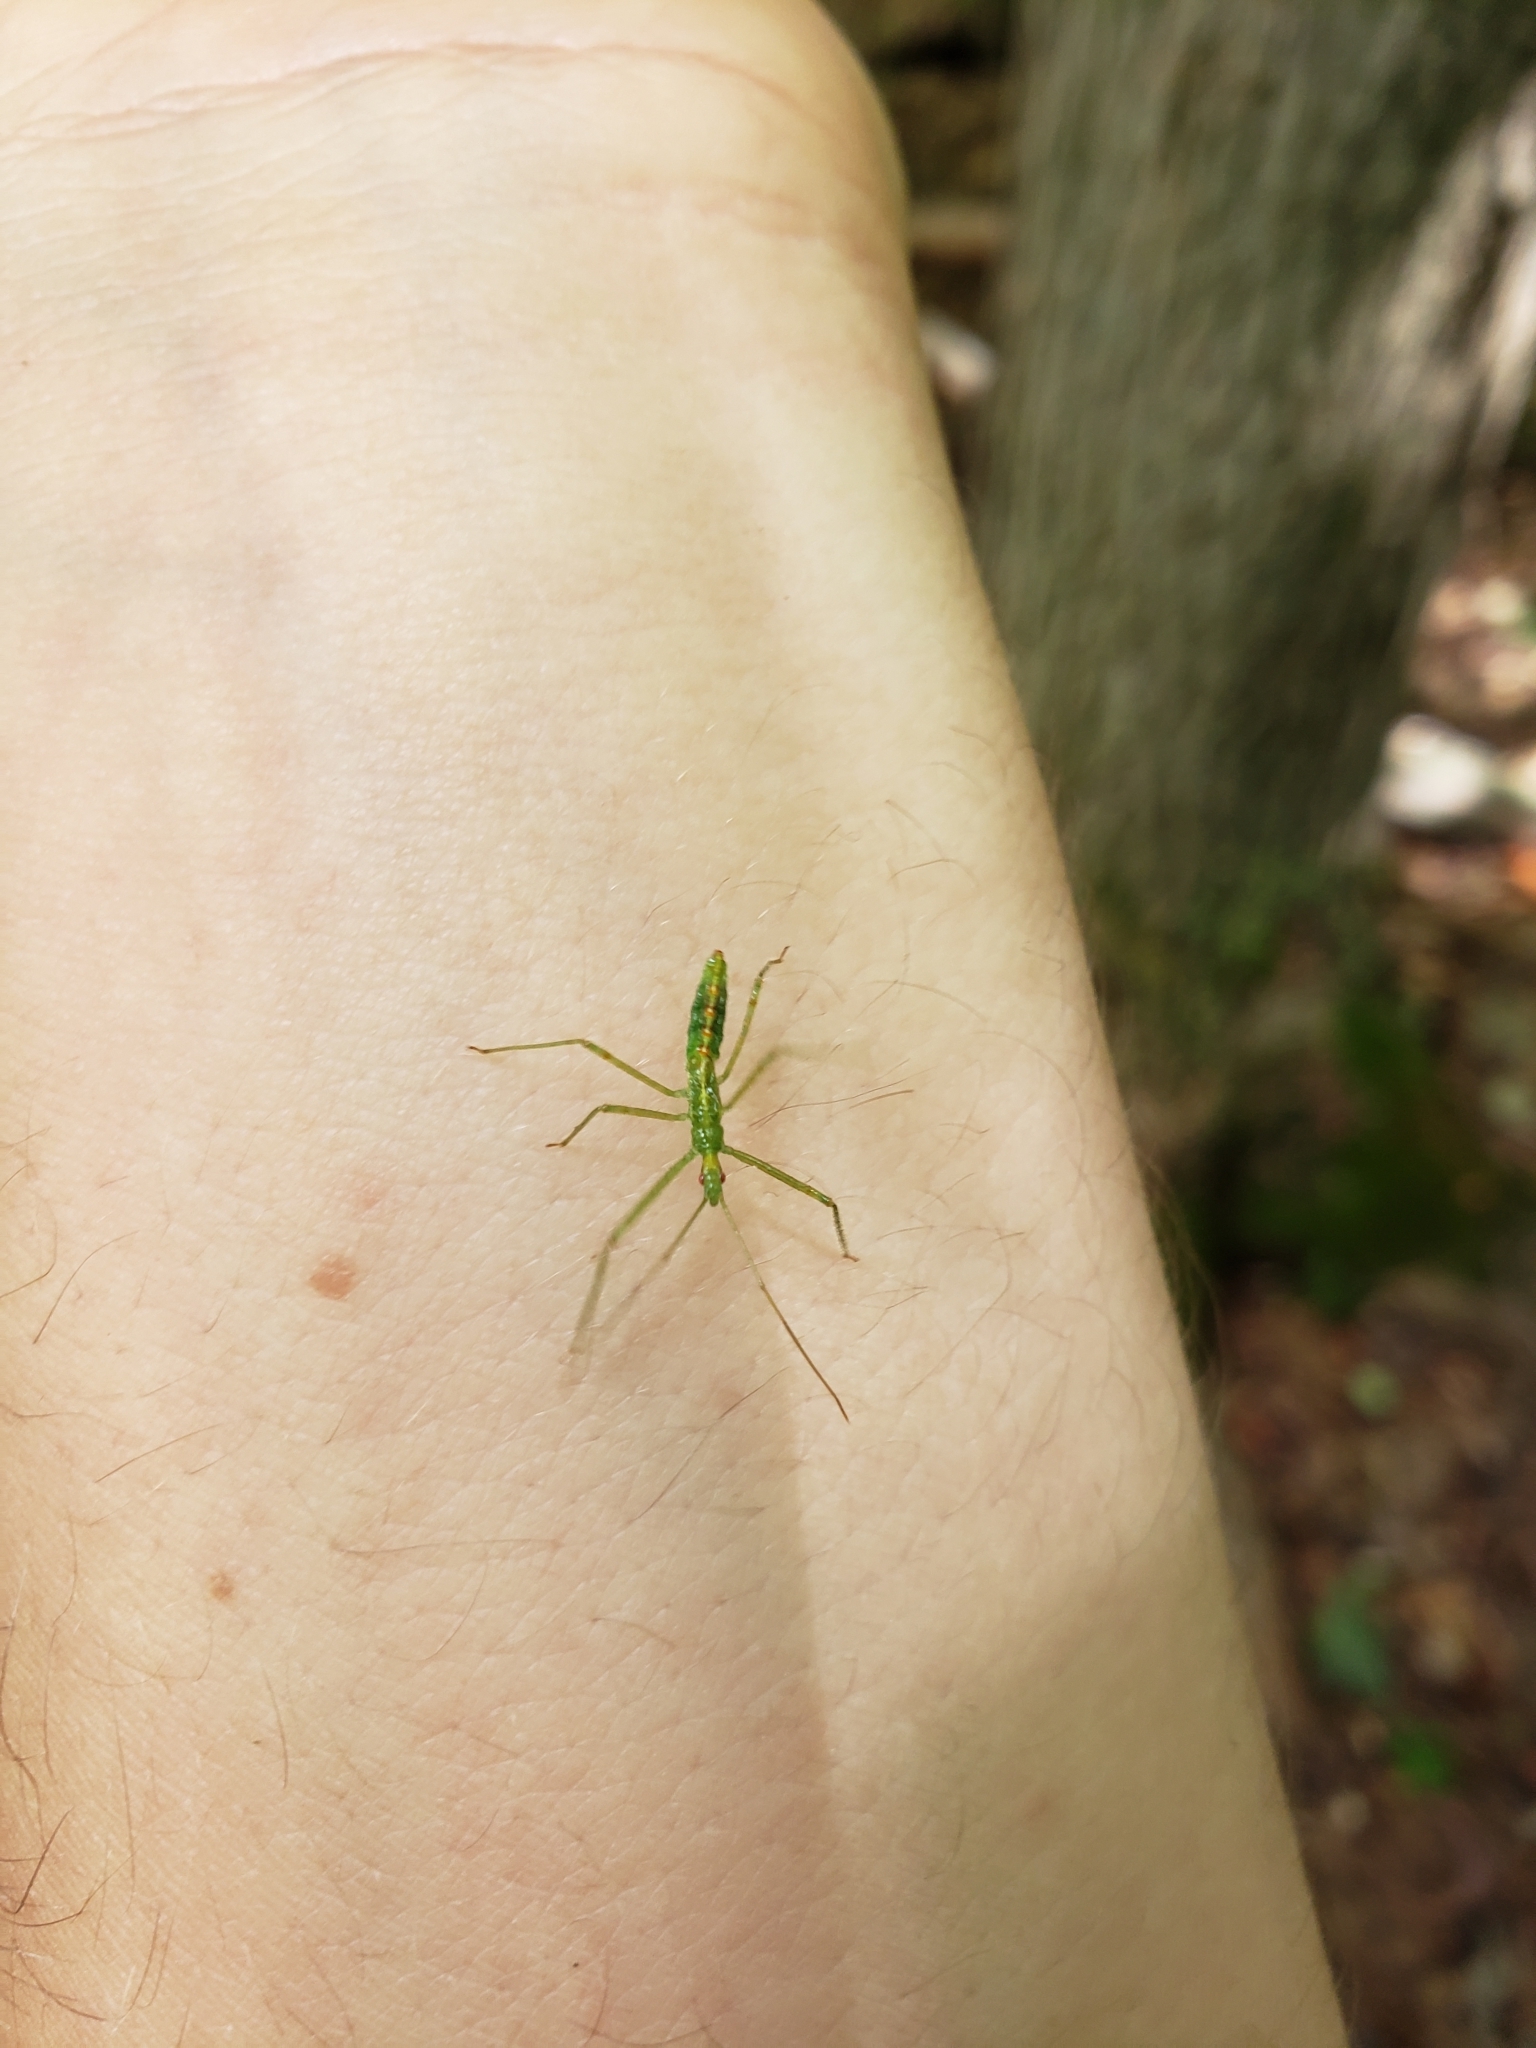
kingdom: Animalia
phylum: Arthropoda
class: Insecta
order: Hemiptera
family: Reduviidae
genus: Zelus
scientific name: Zelus luridus
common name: Pale green assassin bug
